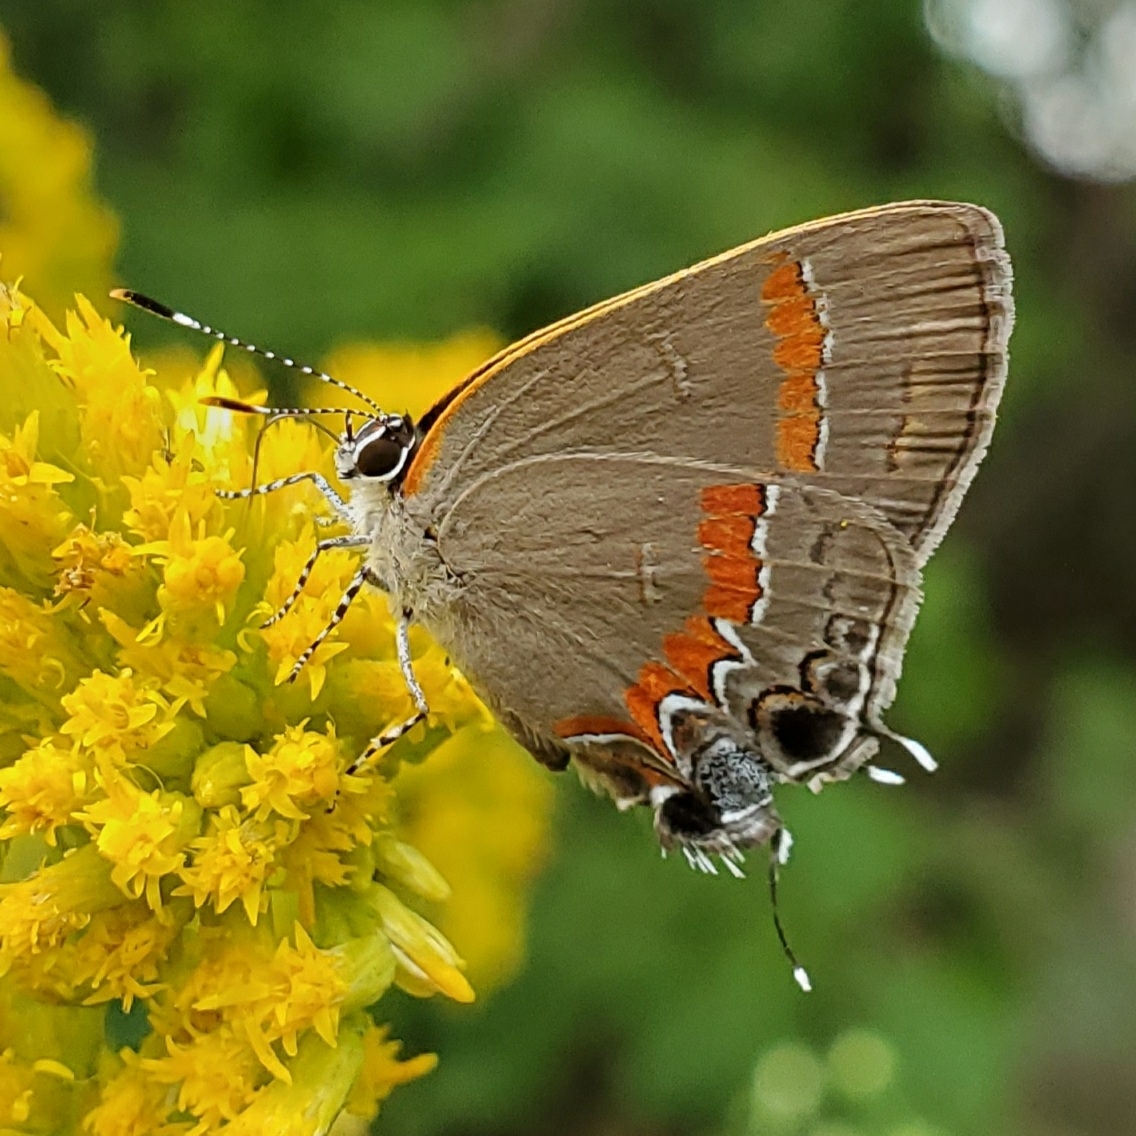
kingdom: Animalia
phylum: Arthropoda
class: Insecta
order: Lepidoptera
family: Lycaenidae
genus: Calycopis
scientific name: Calycopis cecrops
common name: Red-banded hairstreak
